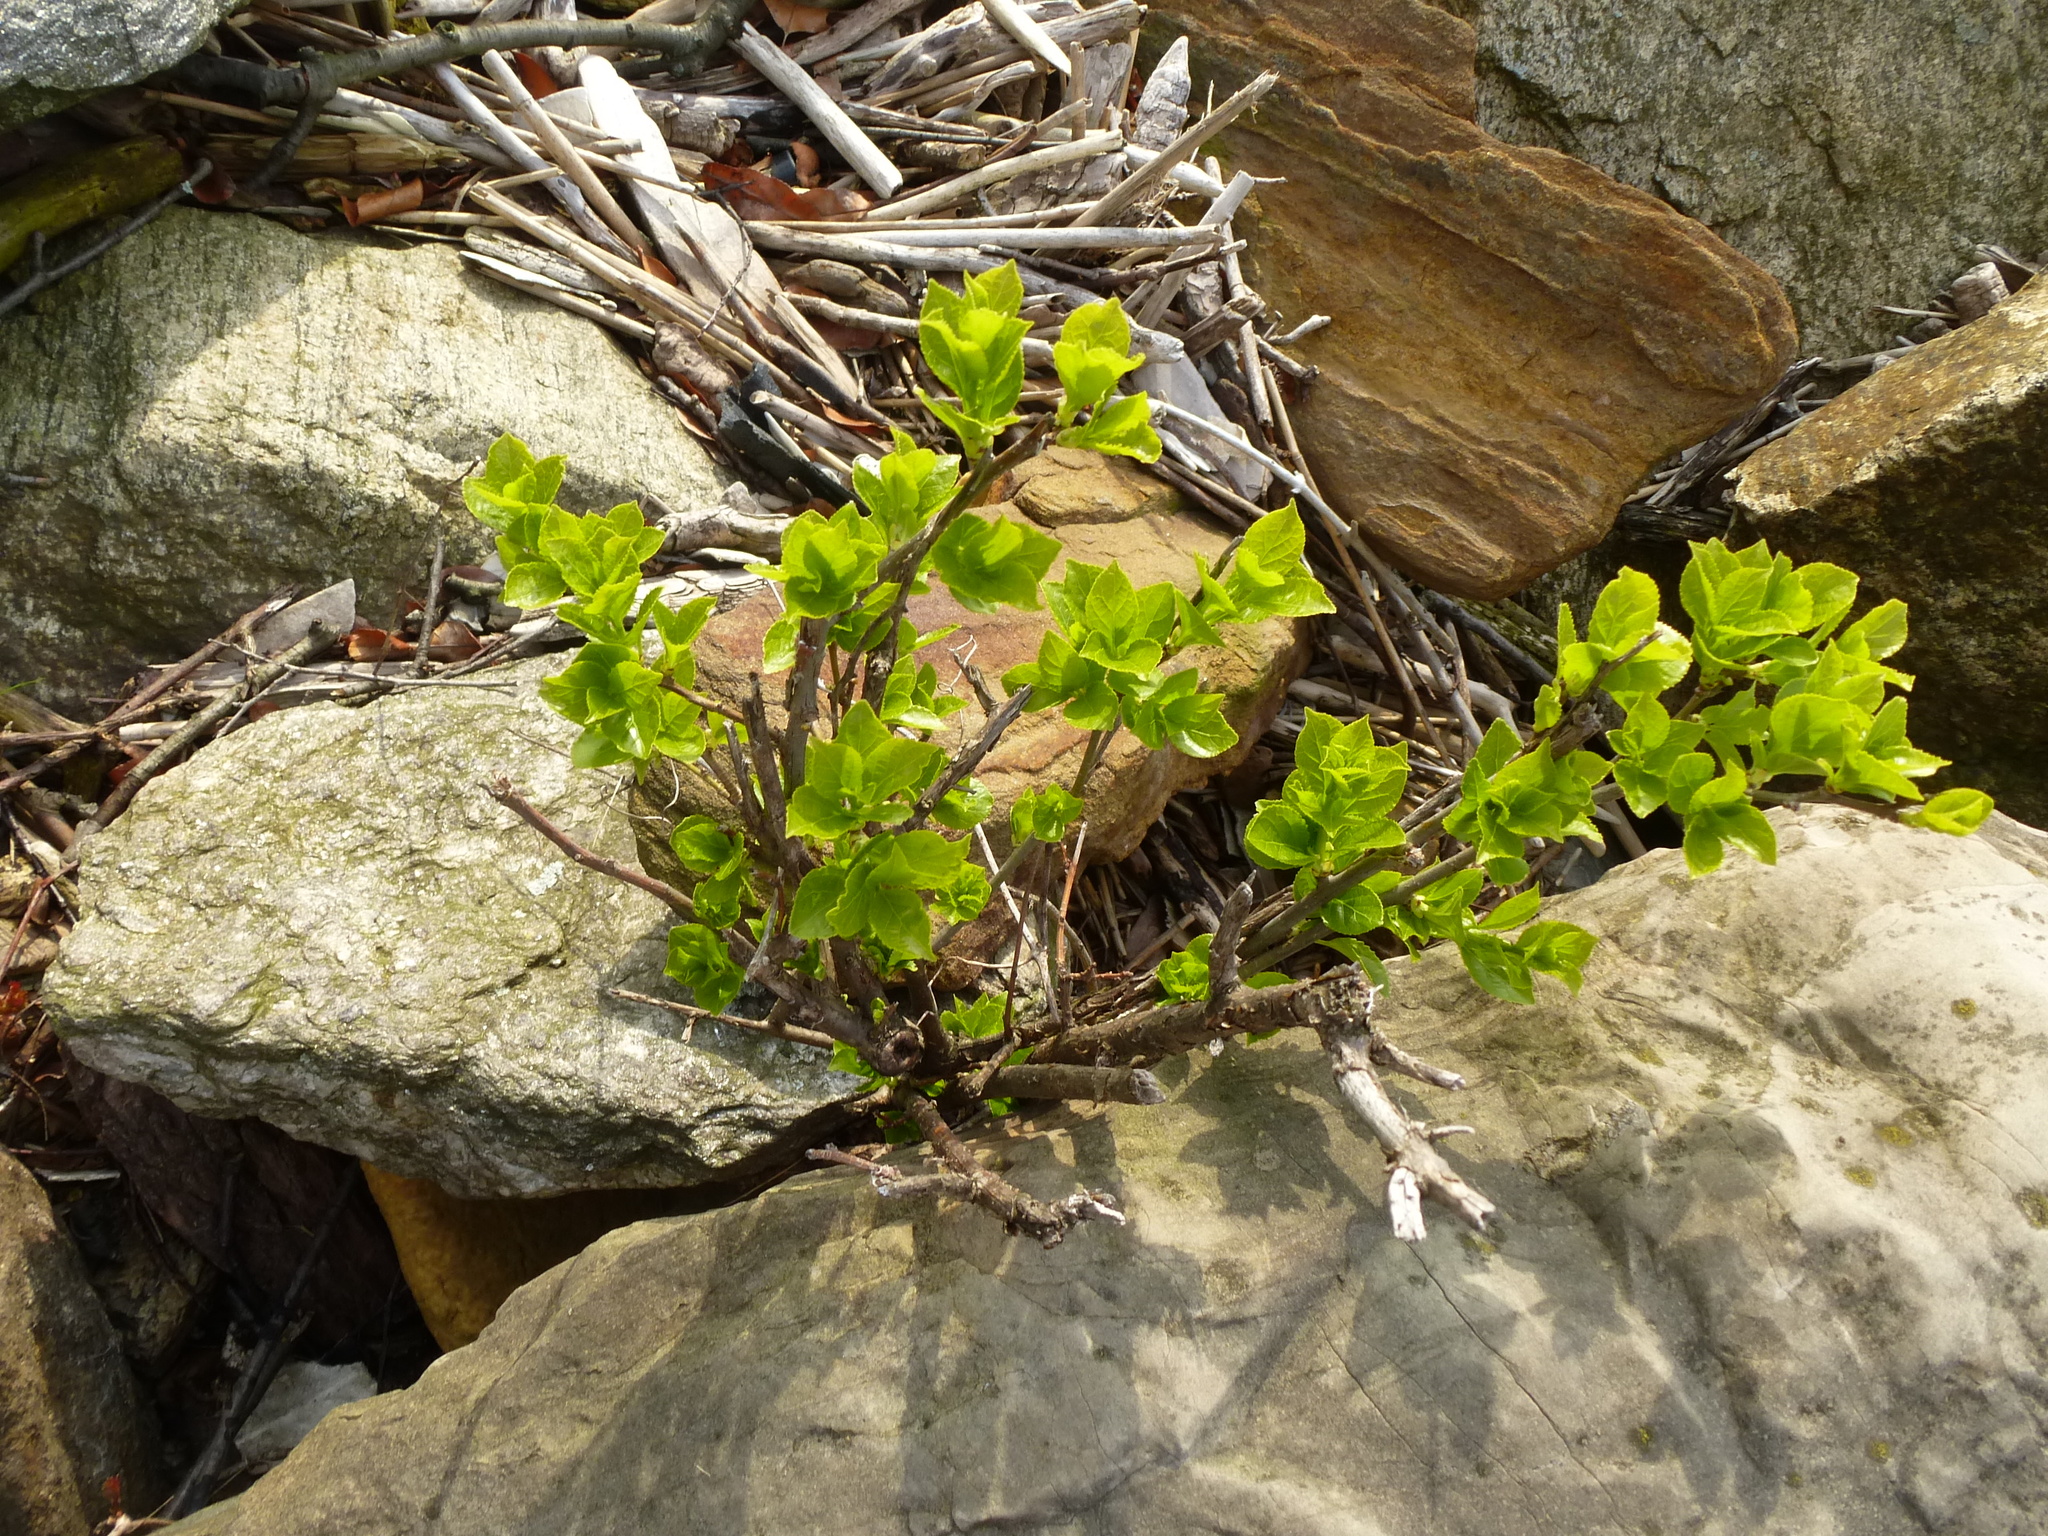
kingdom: Plantae
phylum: Tracheophyta
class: Magnoliopsida
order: Celastrales
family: Celastraceae
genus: Celastrus
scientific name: Celastrus orbiculatus
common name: Oriental bittersweet
